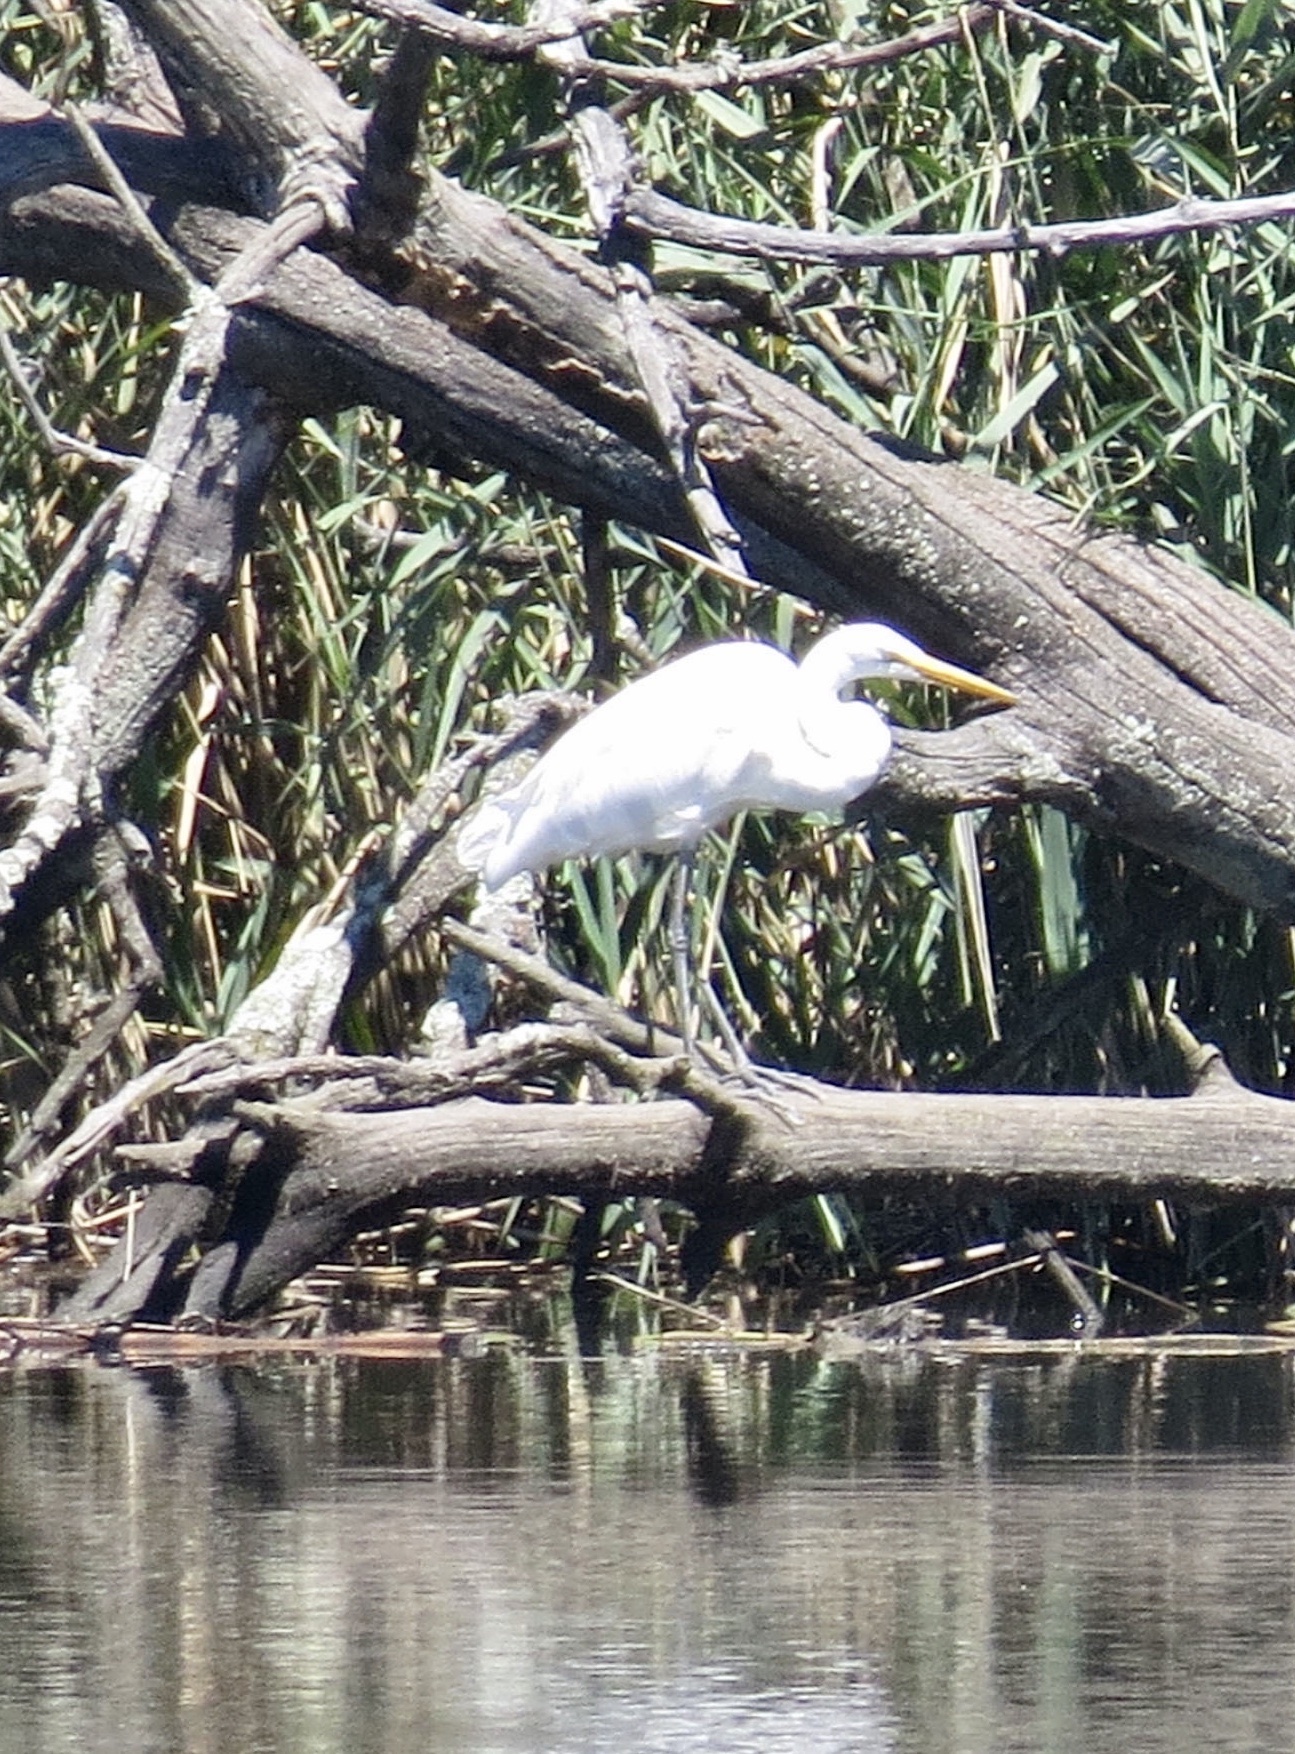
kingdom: Animalia
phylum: Chordata
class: Aves
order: Pelecaniformes
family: Ardeidae
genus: Ardea
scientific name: Ardea alba
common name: Great egret
